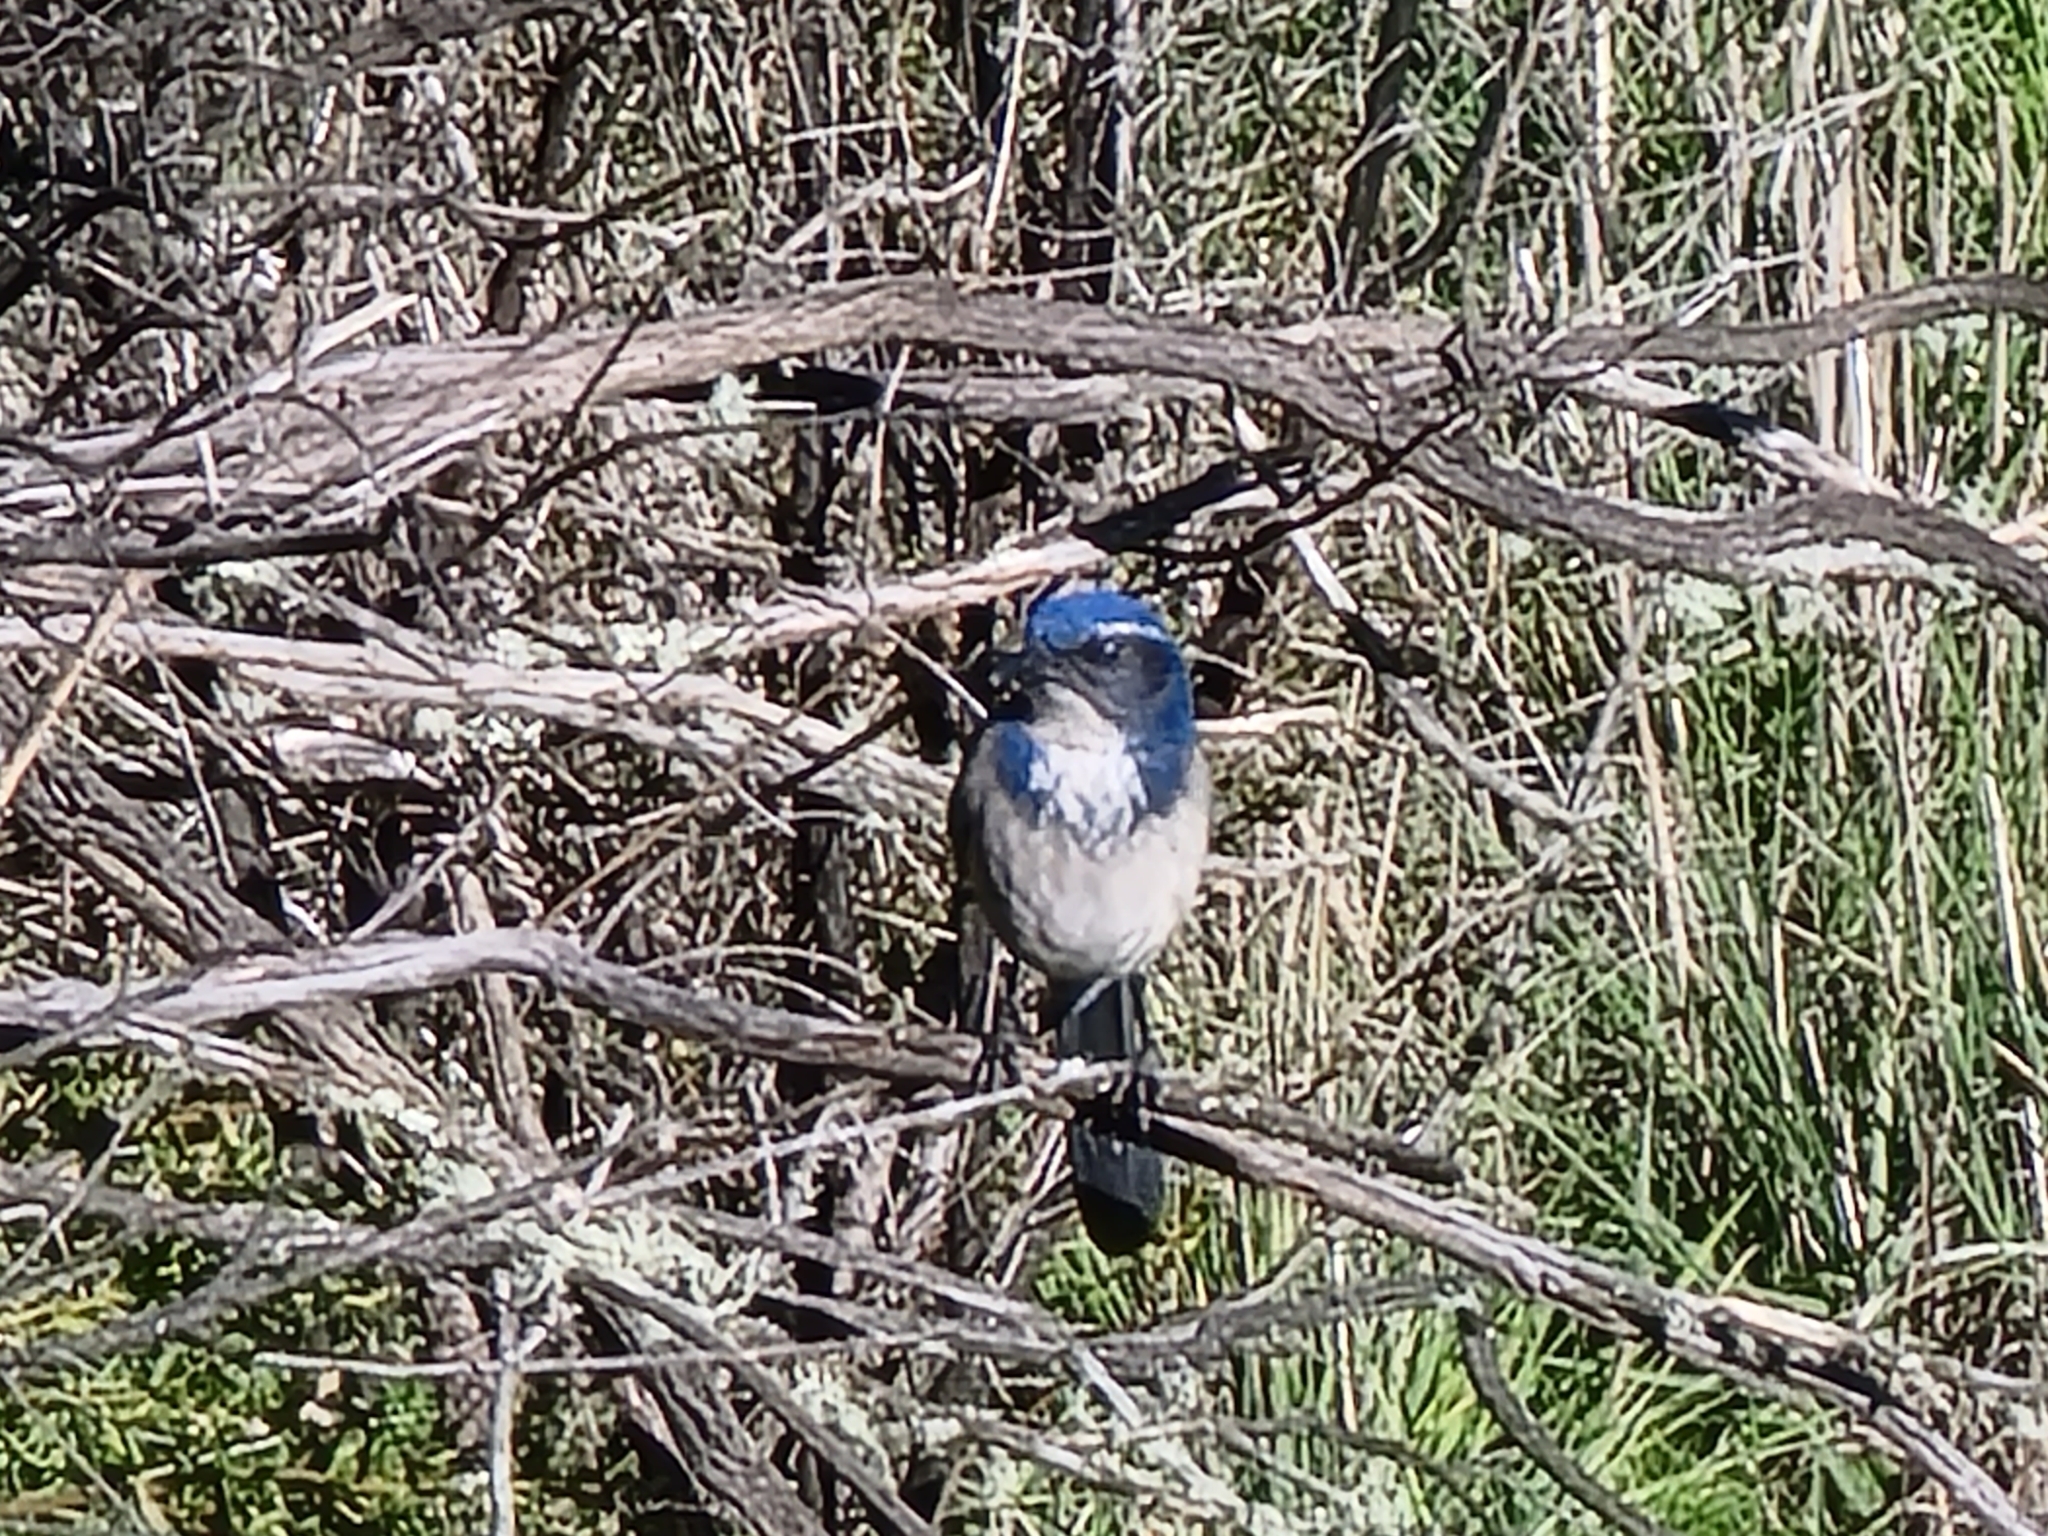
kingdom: Animalia
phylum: Chordata
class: Aves
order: Passeriformes
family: Corvidae
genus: Aphelocoma
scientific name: Aphelocoma californica
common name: California scrub-jay
